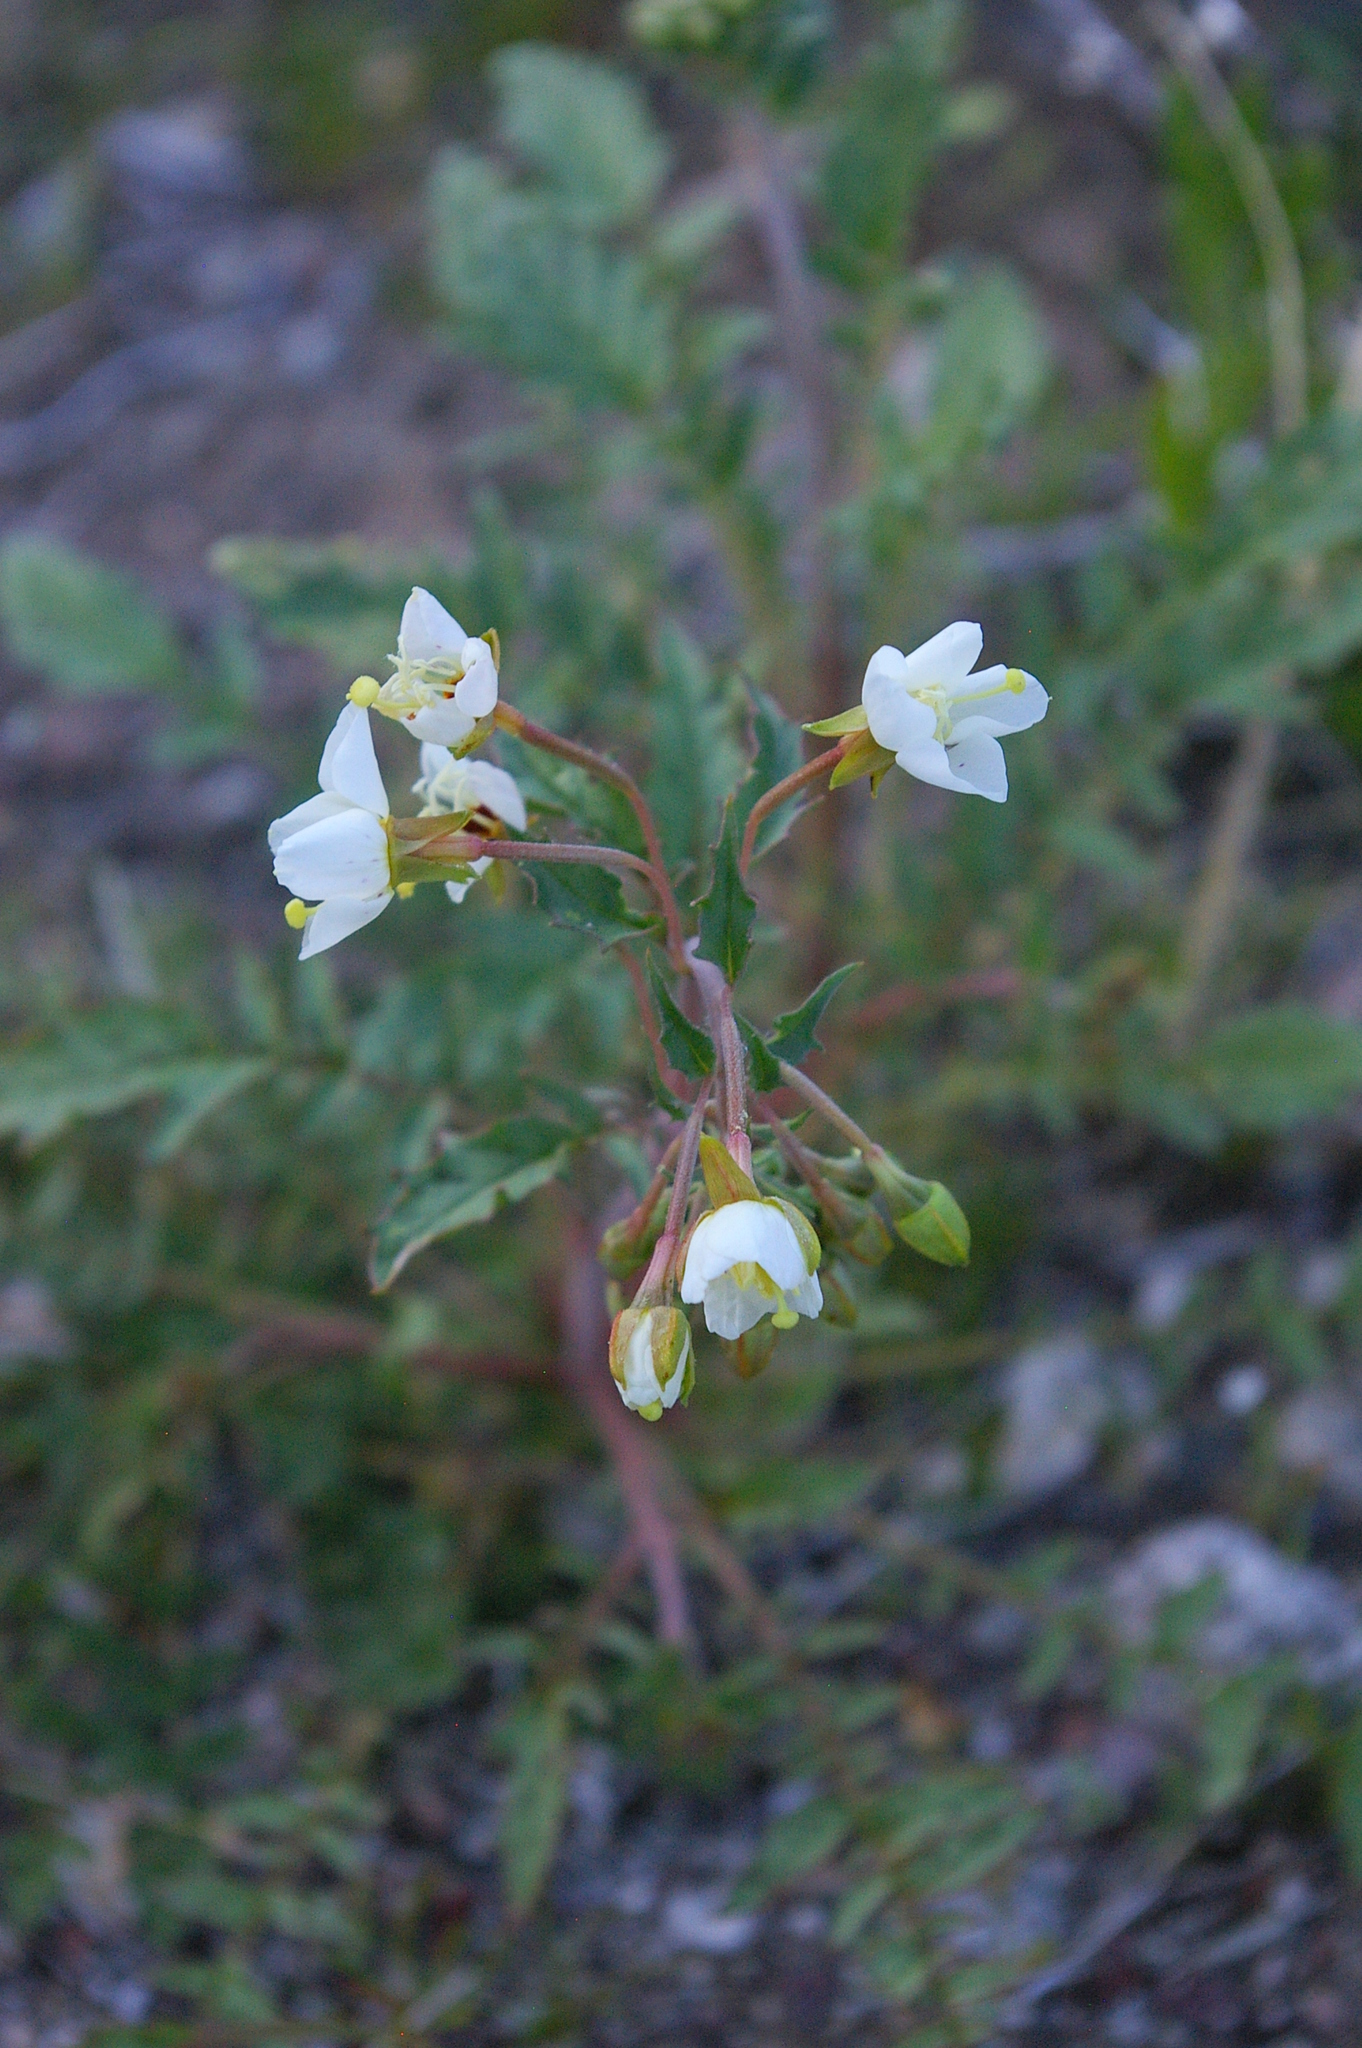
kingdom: Plantae
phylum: Tracheophyta
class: Magnoliopsida
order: Myrtales
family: Onagraceae
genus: Chylismia
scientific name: Chylismia claviformis
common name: Browneyes
